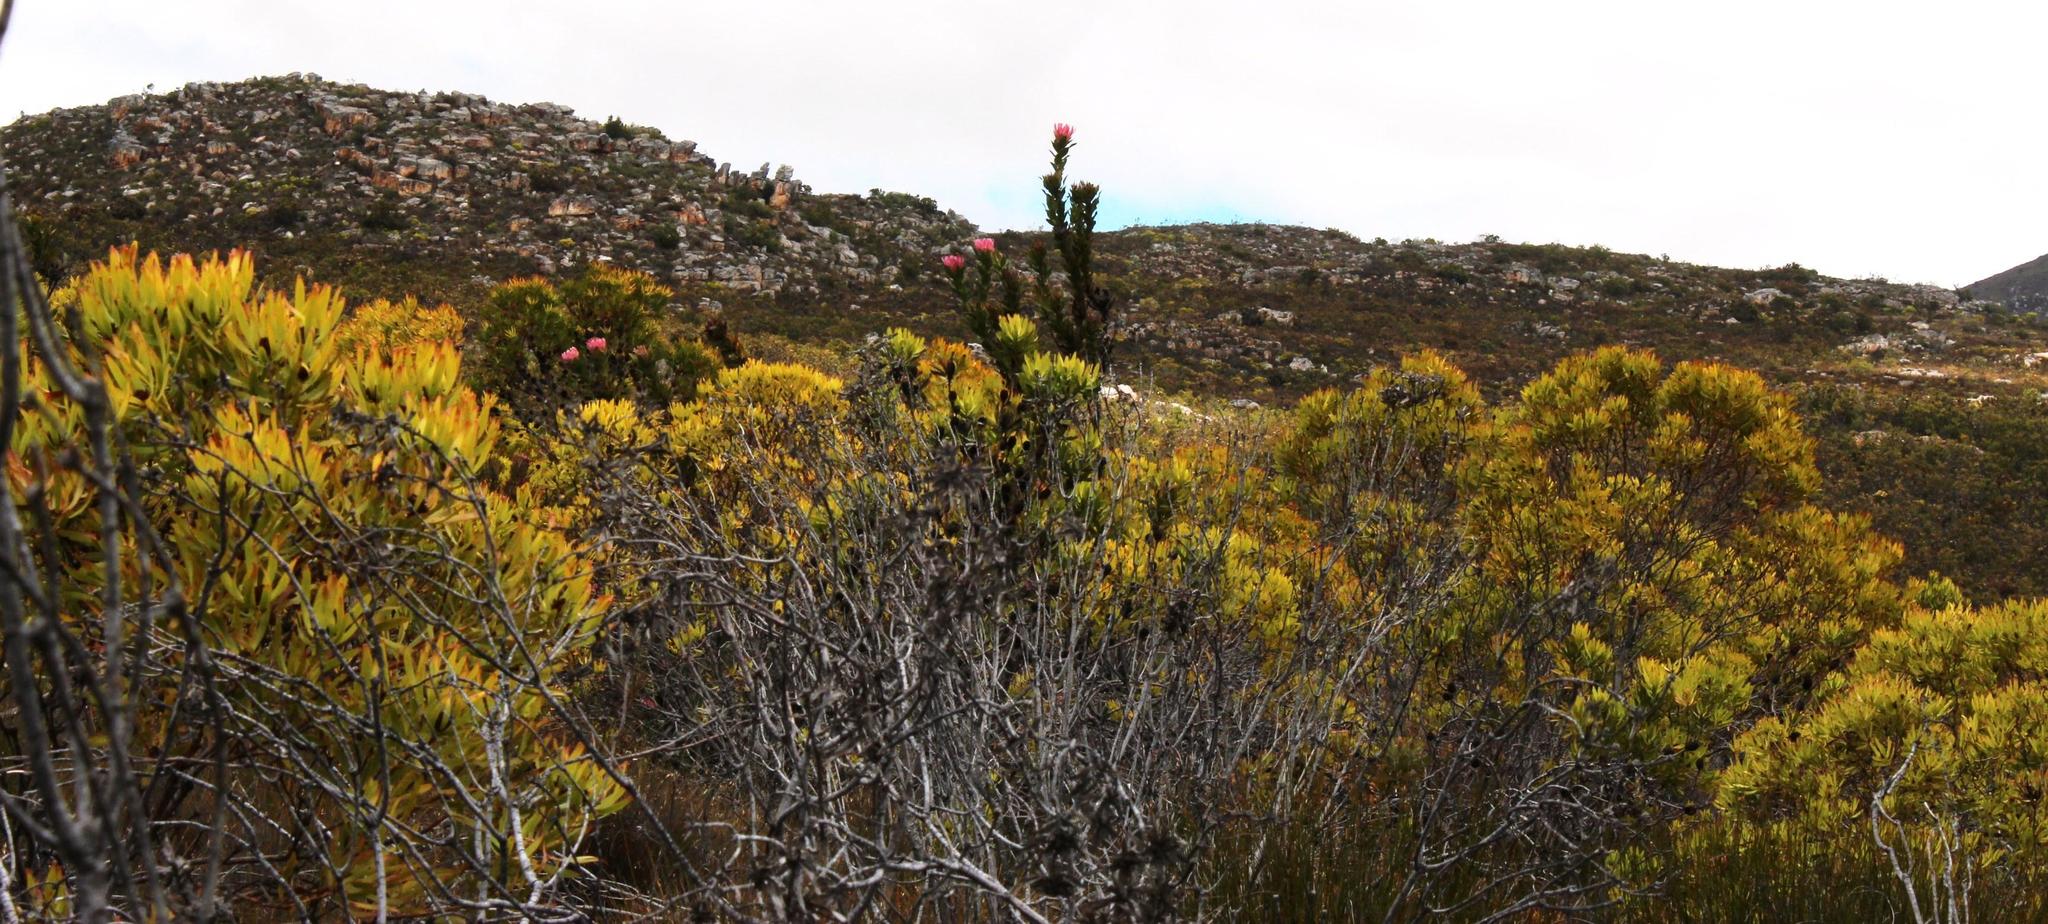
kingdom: Plantae
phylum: Tracheophyta
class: Magnoliopsida
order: Proteales
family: Proteaceae
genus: Protea
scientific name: Protea compacta
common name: Bot river protea
